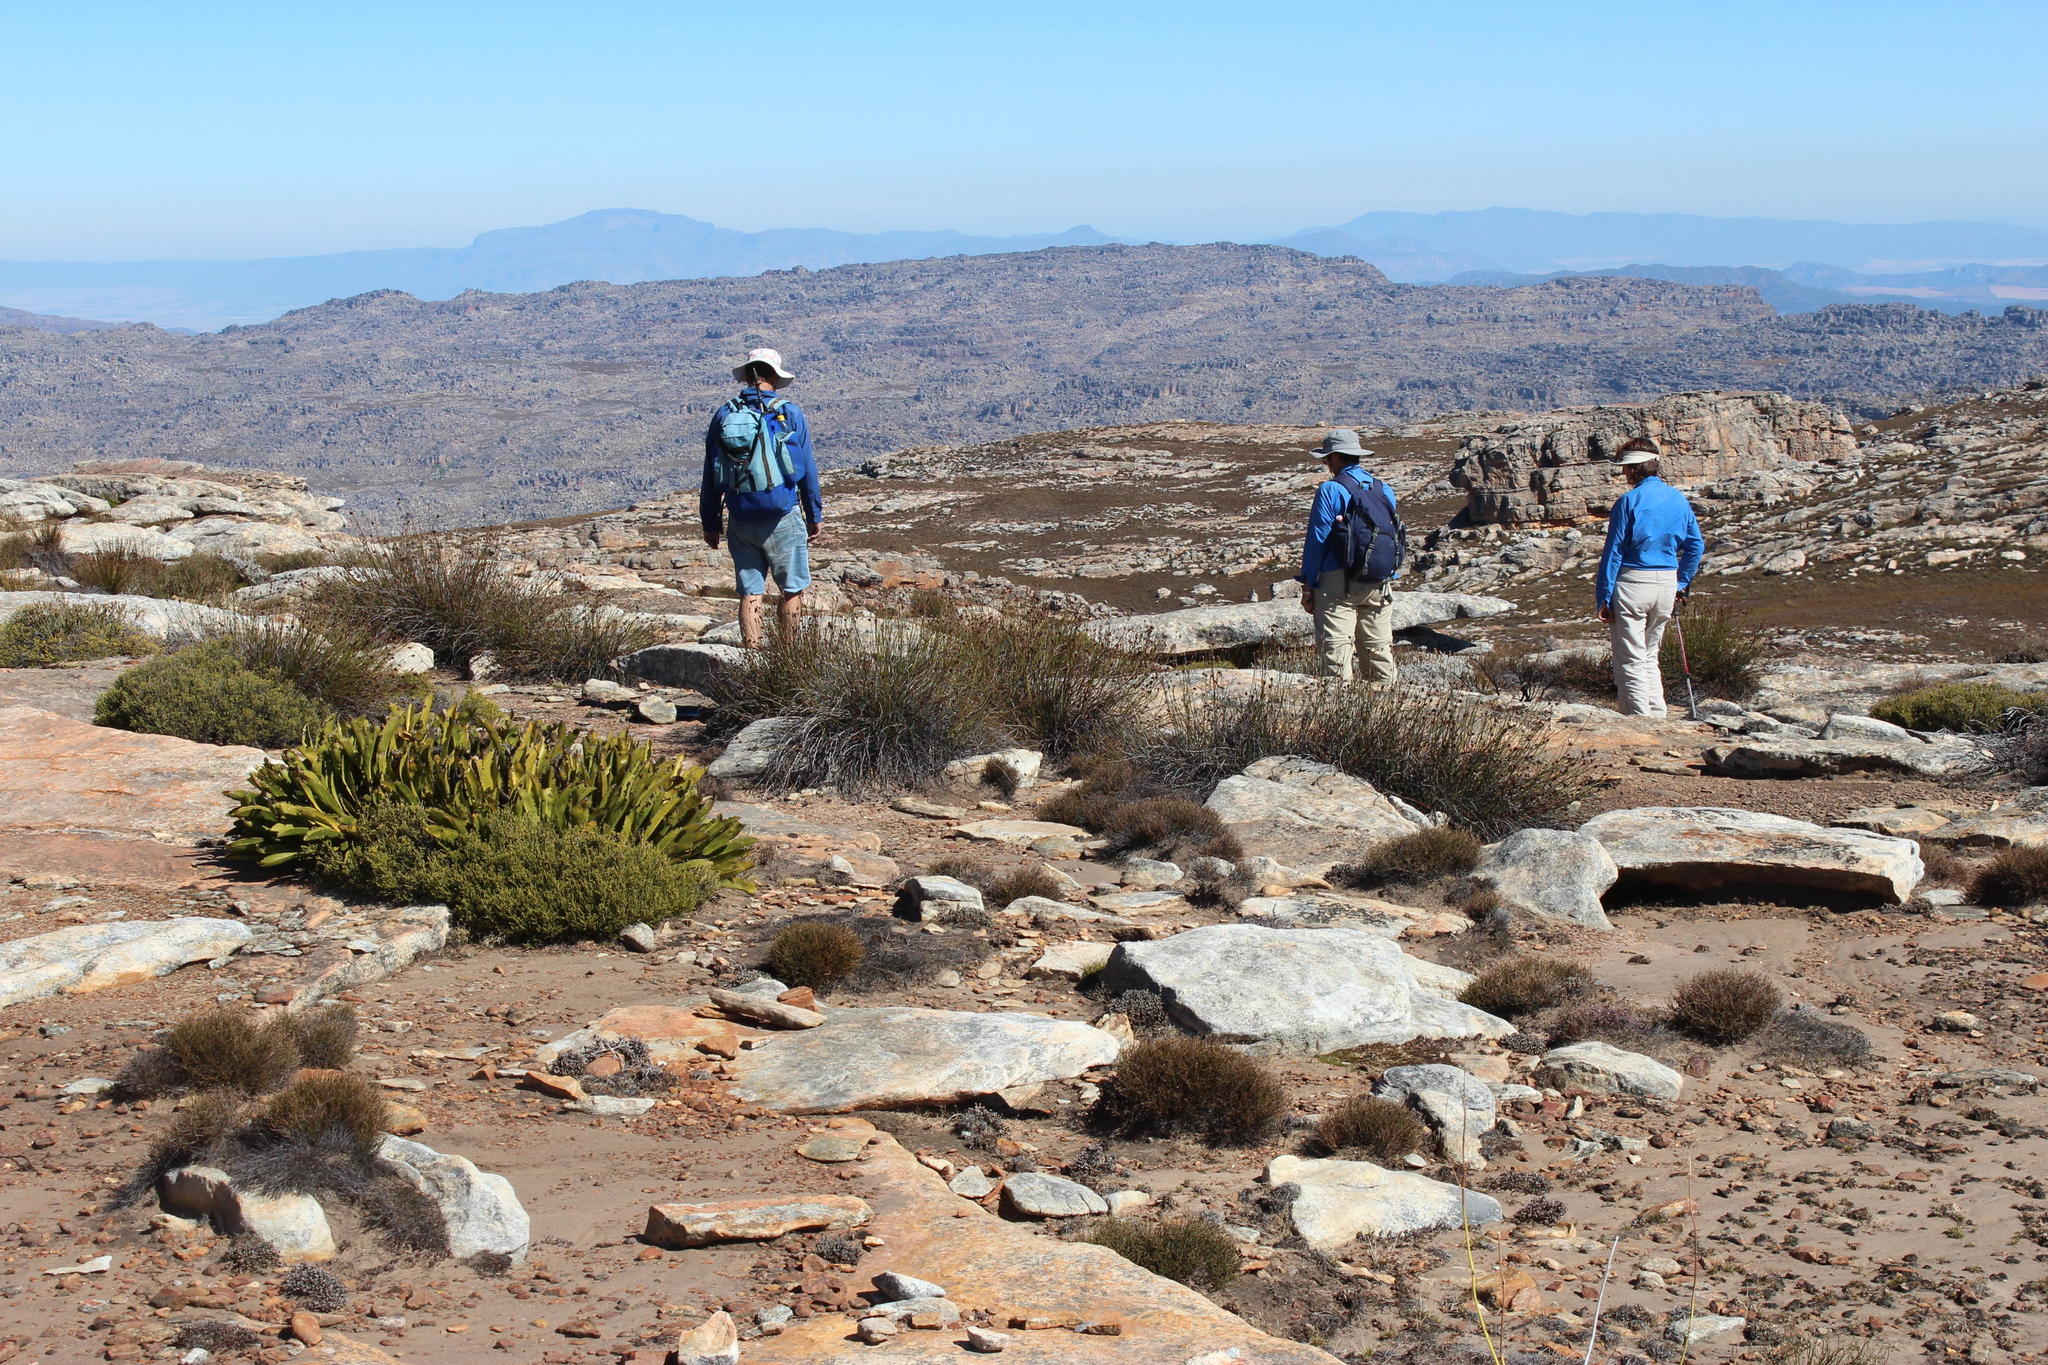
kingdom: Plantae
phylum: Tracheophyta
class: Magnoliopsida
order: Proteales
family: Proteaceae
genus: Protea
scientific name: Protea cryophila
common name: Snow protea
